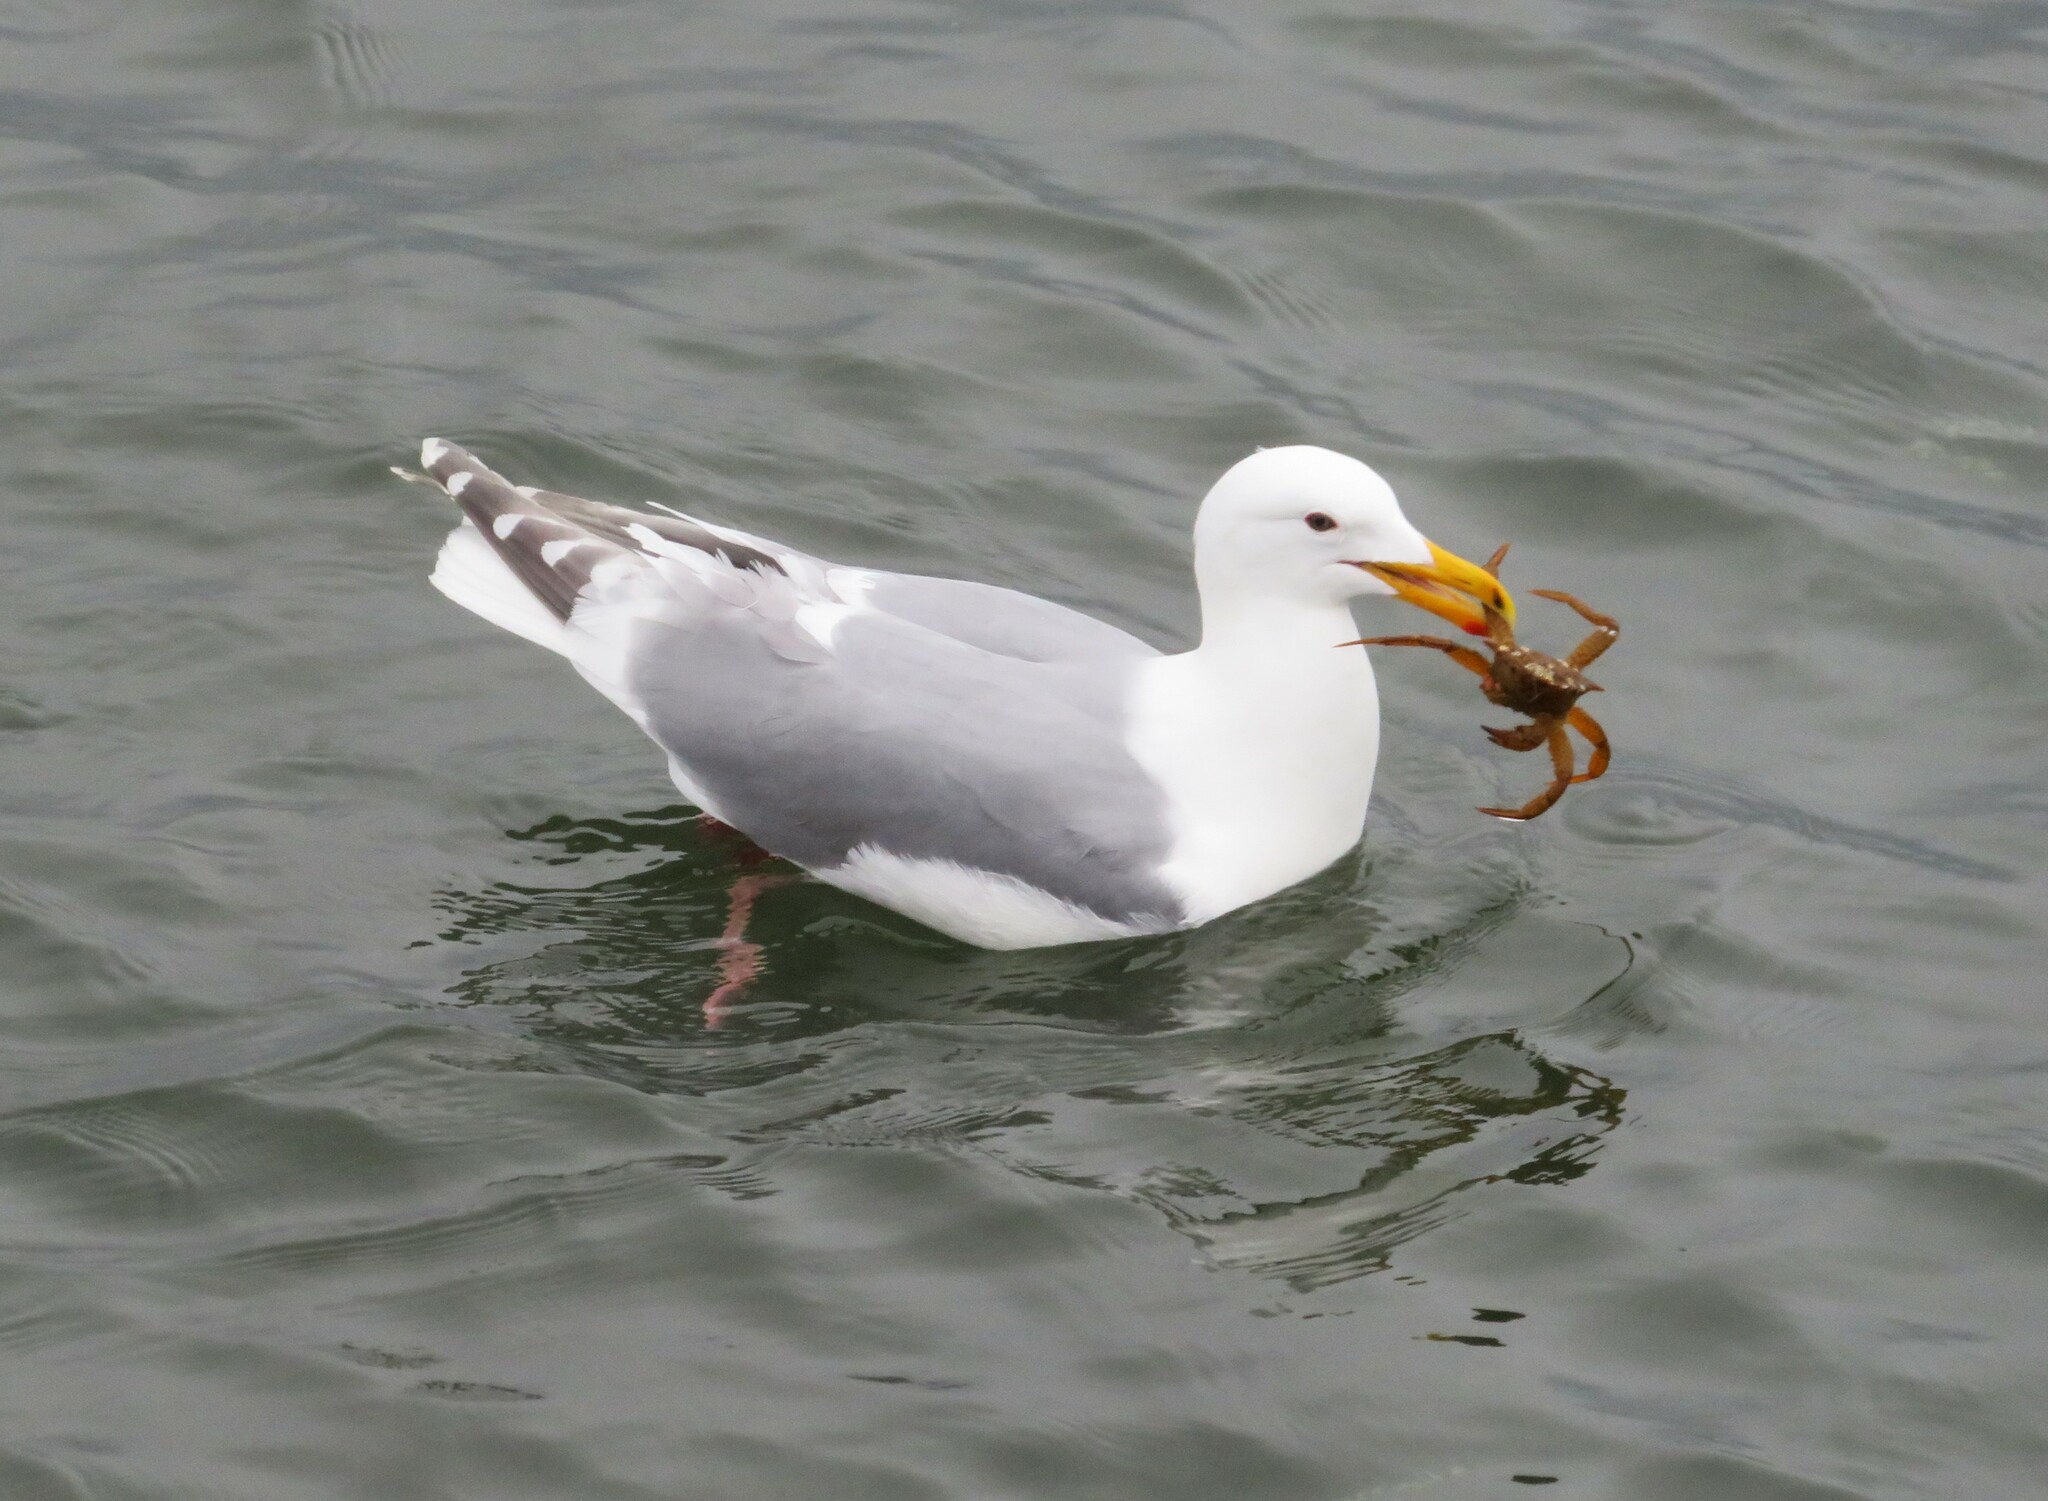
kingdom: Animalia
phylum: Chordata
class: Aves
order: Charadriiformes
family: Laridae
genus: Larus
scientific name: Larus glaucescens
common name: Glaucous-winged gull
